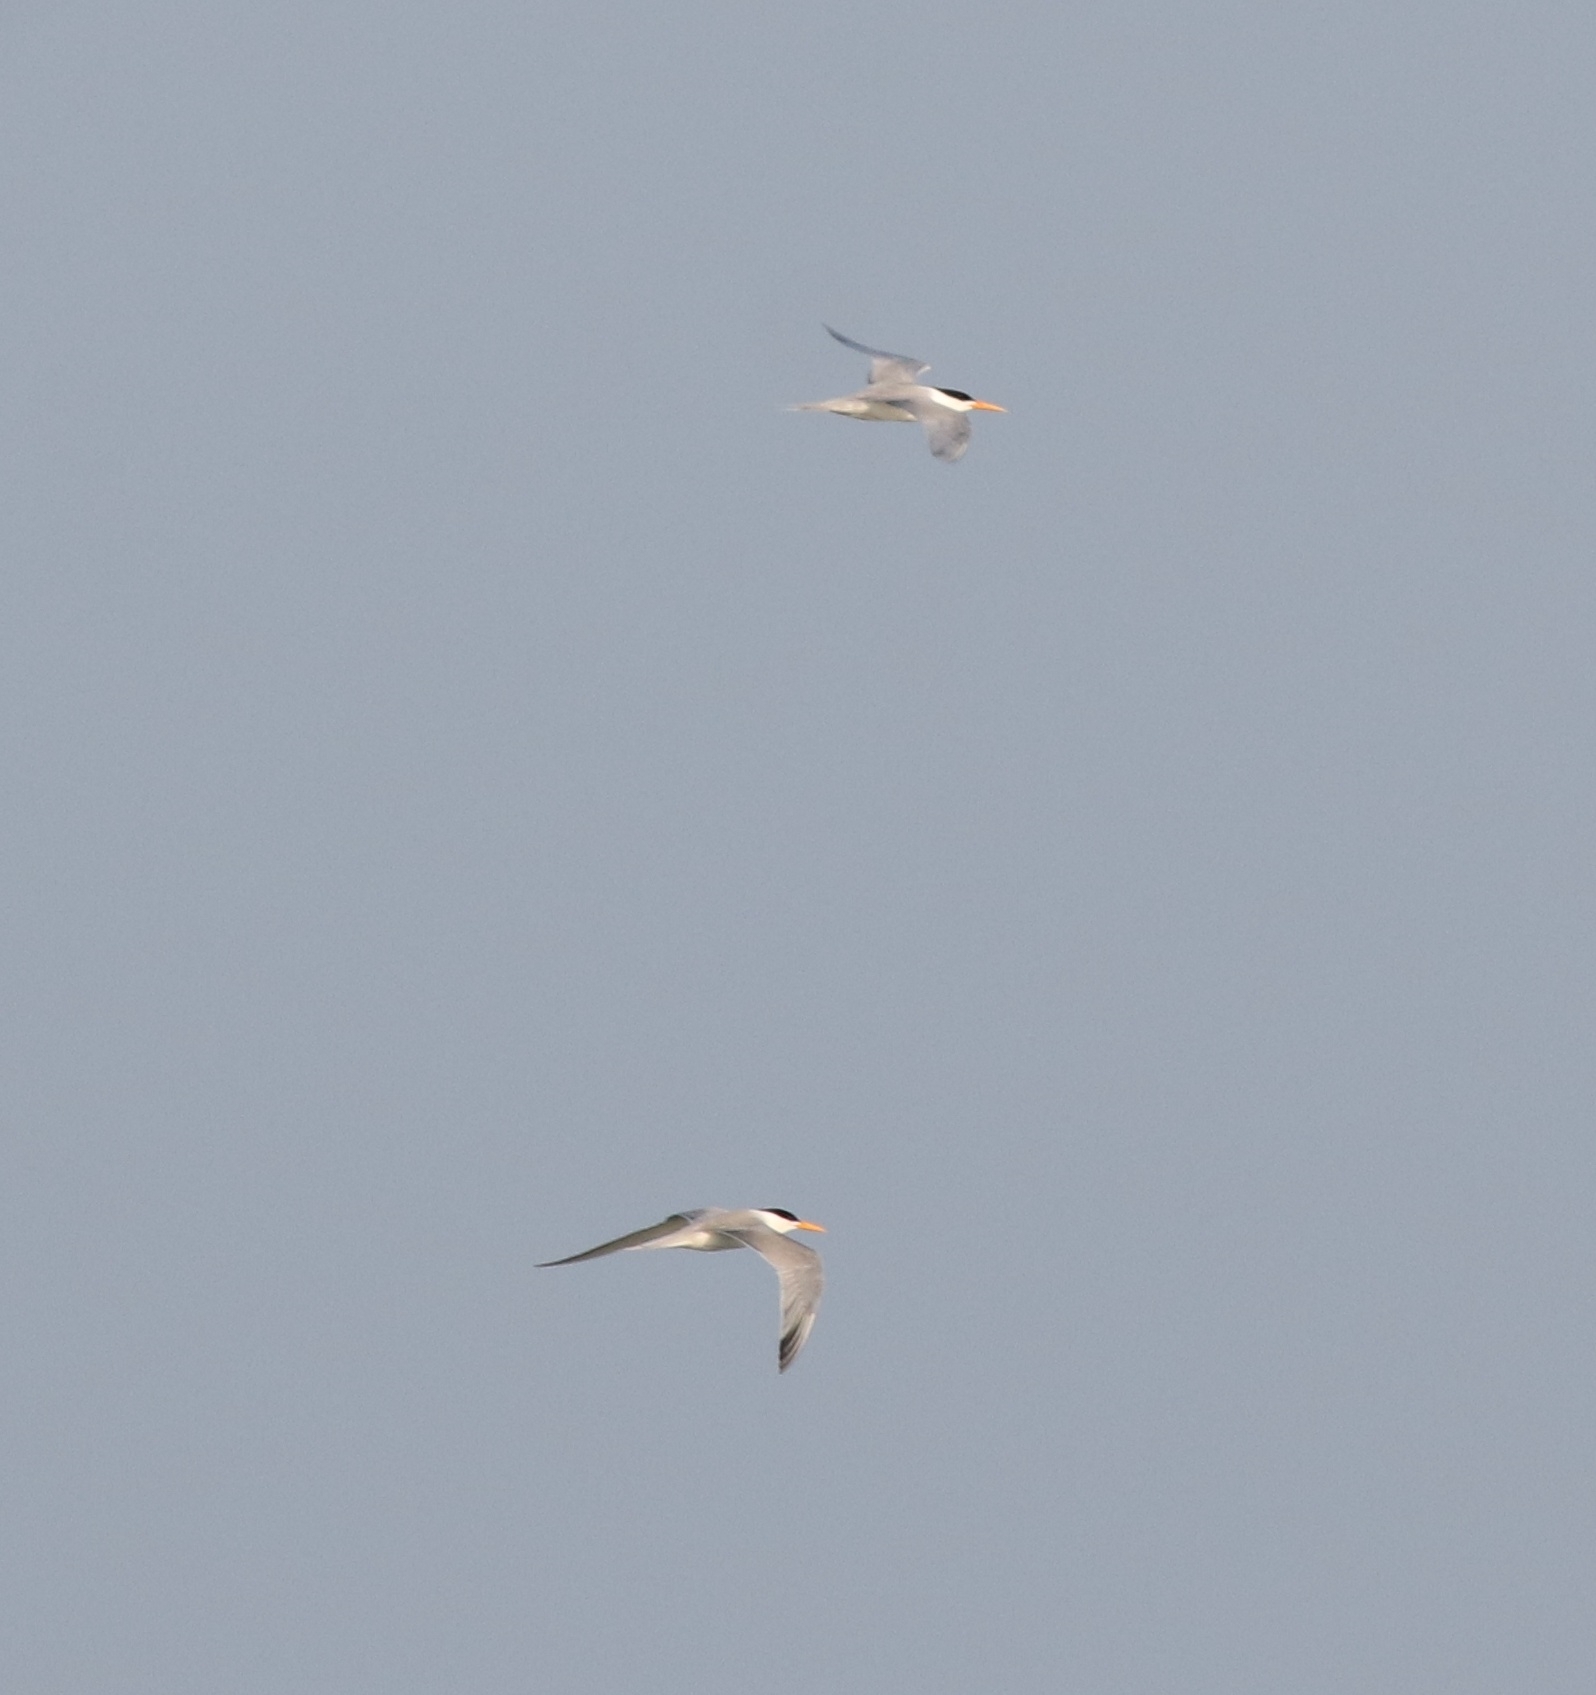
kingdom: Animalia
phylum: Chordata
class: Aves
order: Charadriiformes
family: Laridae
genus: Thalasseus
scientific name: Thalasseus bengalensis
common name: Lesser crested tern
